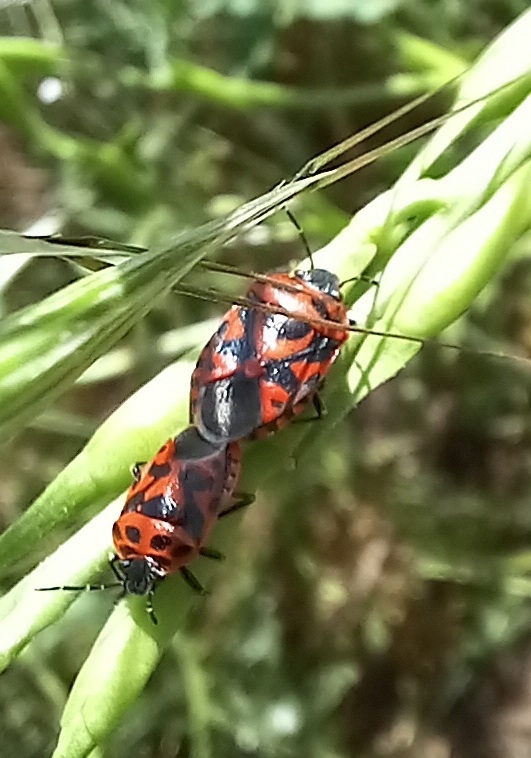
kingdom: Animalia
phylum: Arthropoda
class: Insecta
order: Hemiptera
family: Pentatomidae
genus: Eurydema
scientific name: Eurydema ornata
